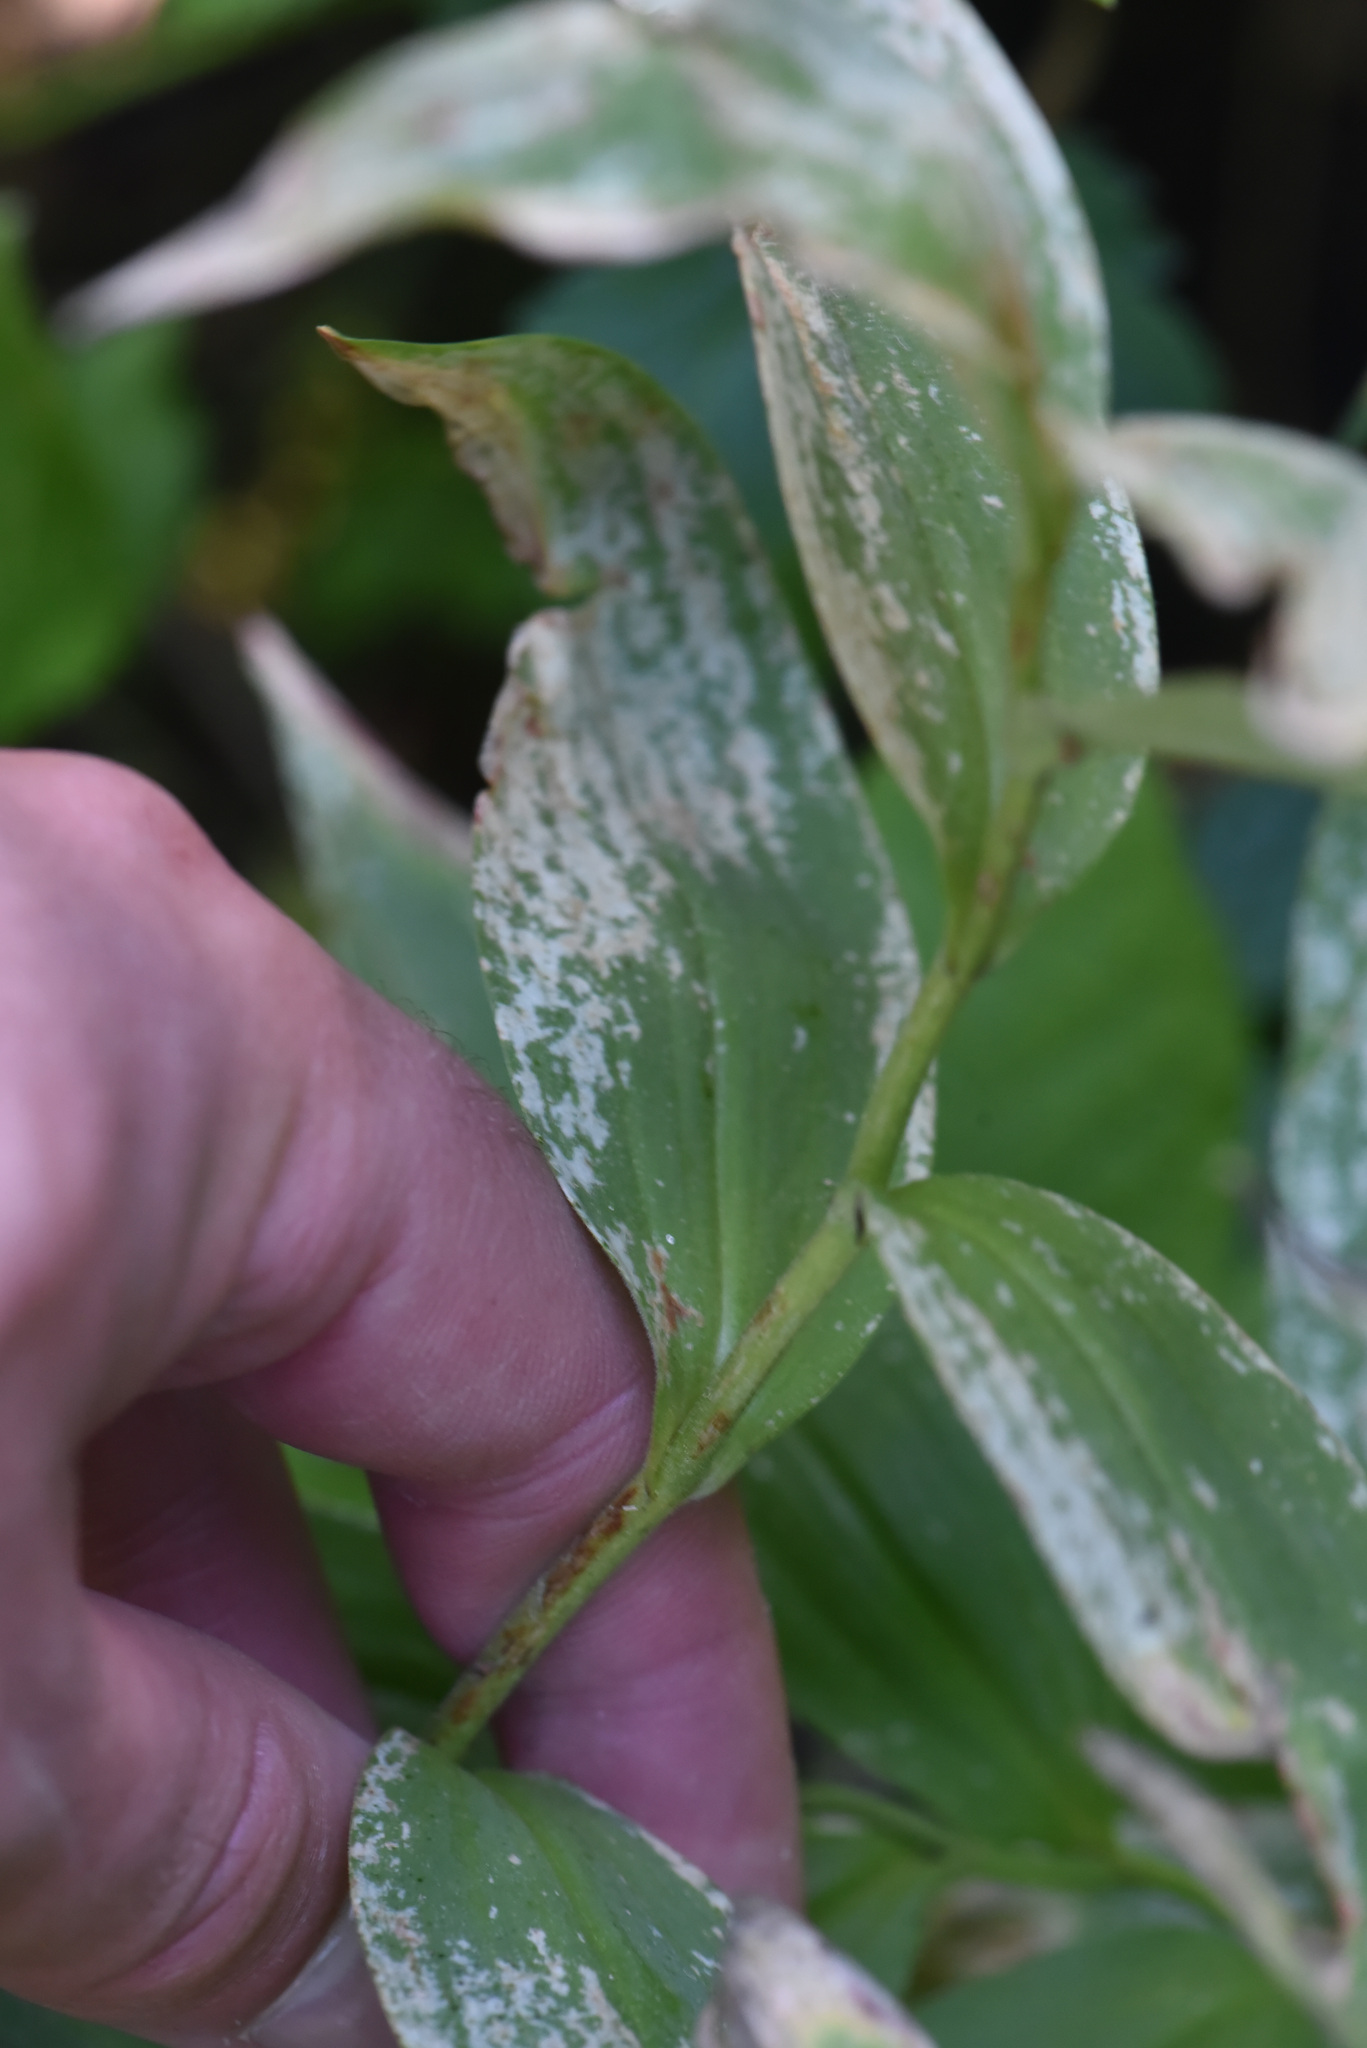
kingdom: Plantae
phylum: Tracheophyta
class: Liliopsida
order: Asparagales
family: Asparagaceae
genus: Maianthemum
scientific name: Maianthemum stellatum
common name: Little false solomon's seal
